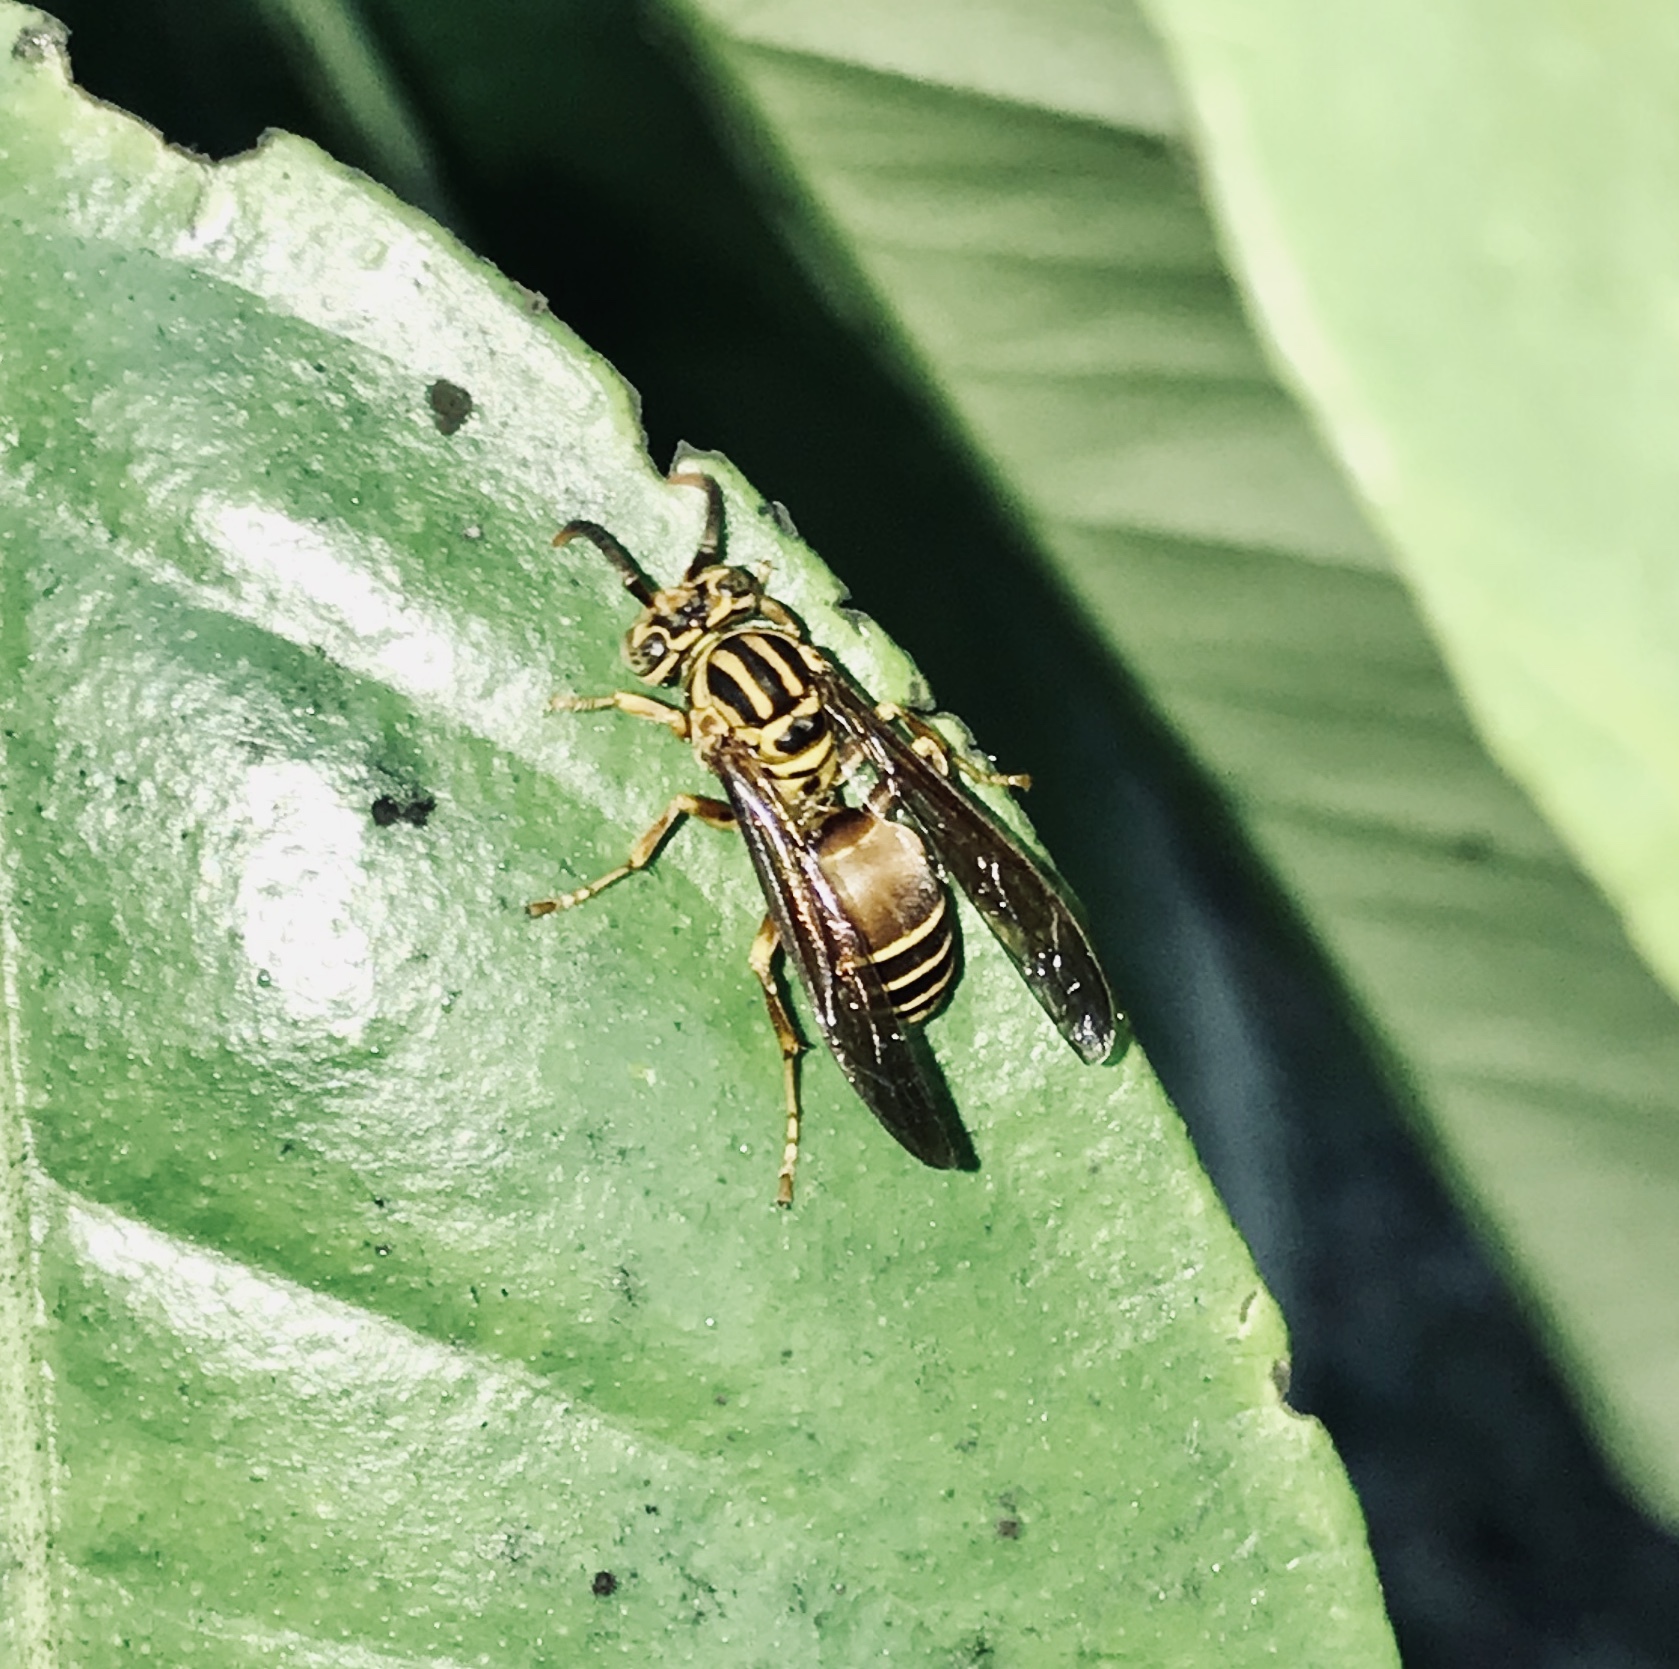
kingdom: Animalia
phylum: Arthropoda
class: Insecta
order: Hymenoptera
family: Vespidae
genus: Parachartergus
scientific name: Parachartergus vespiceps
